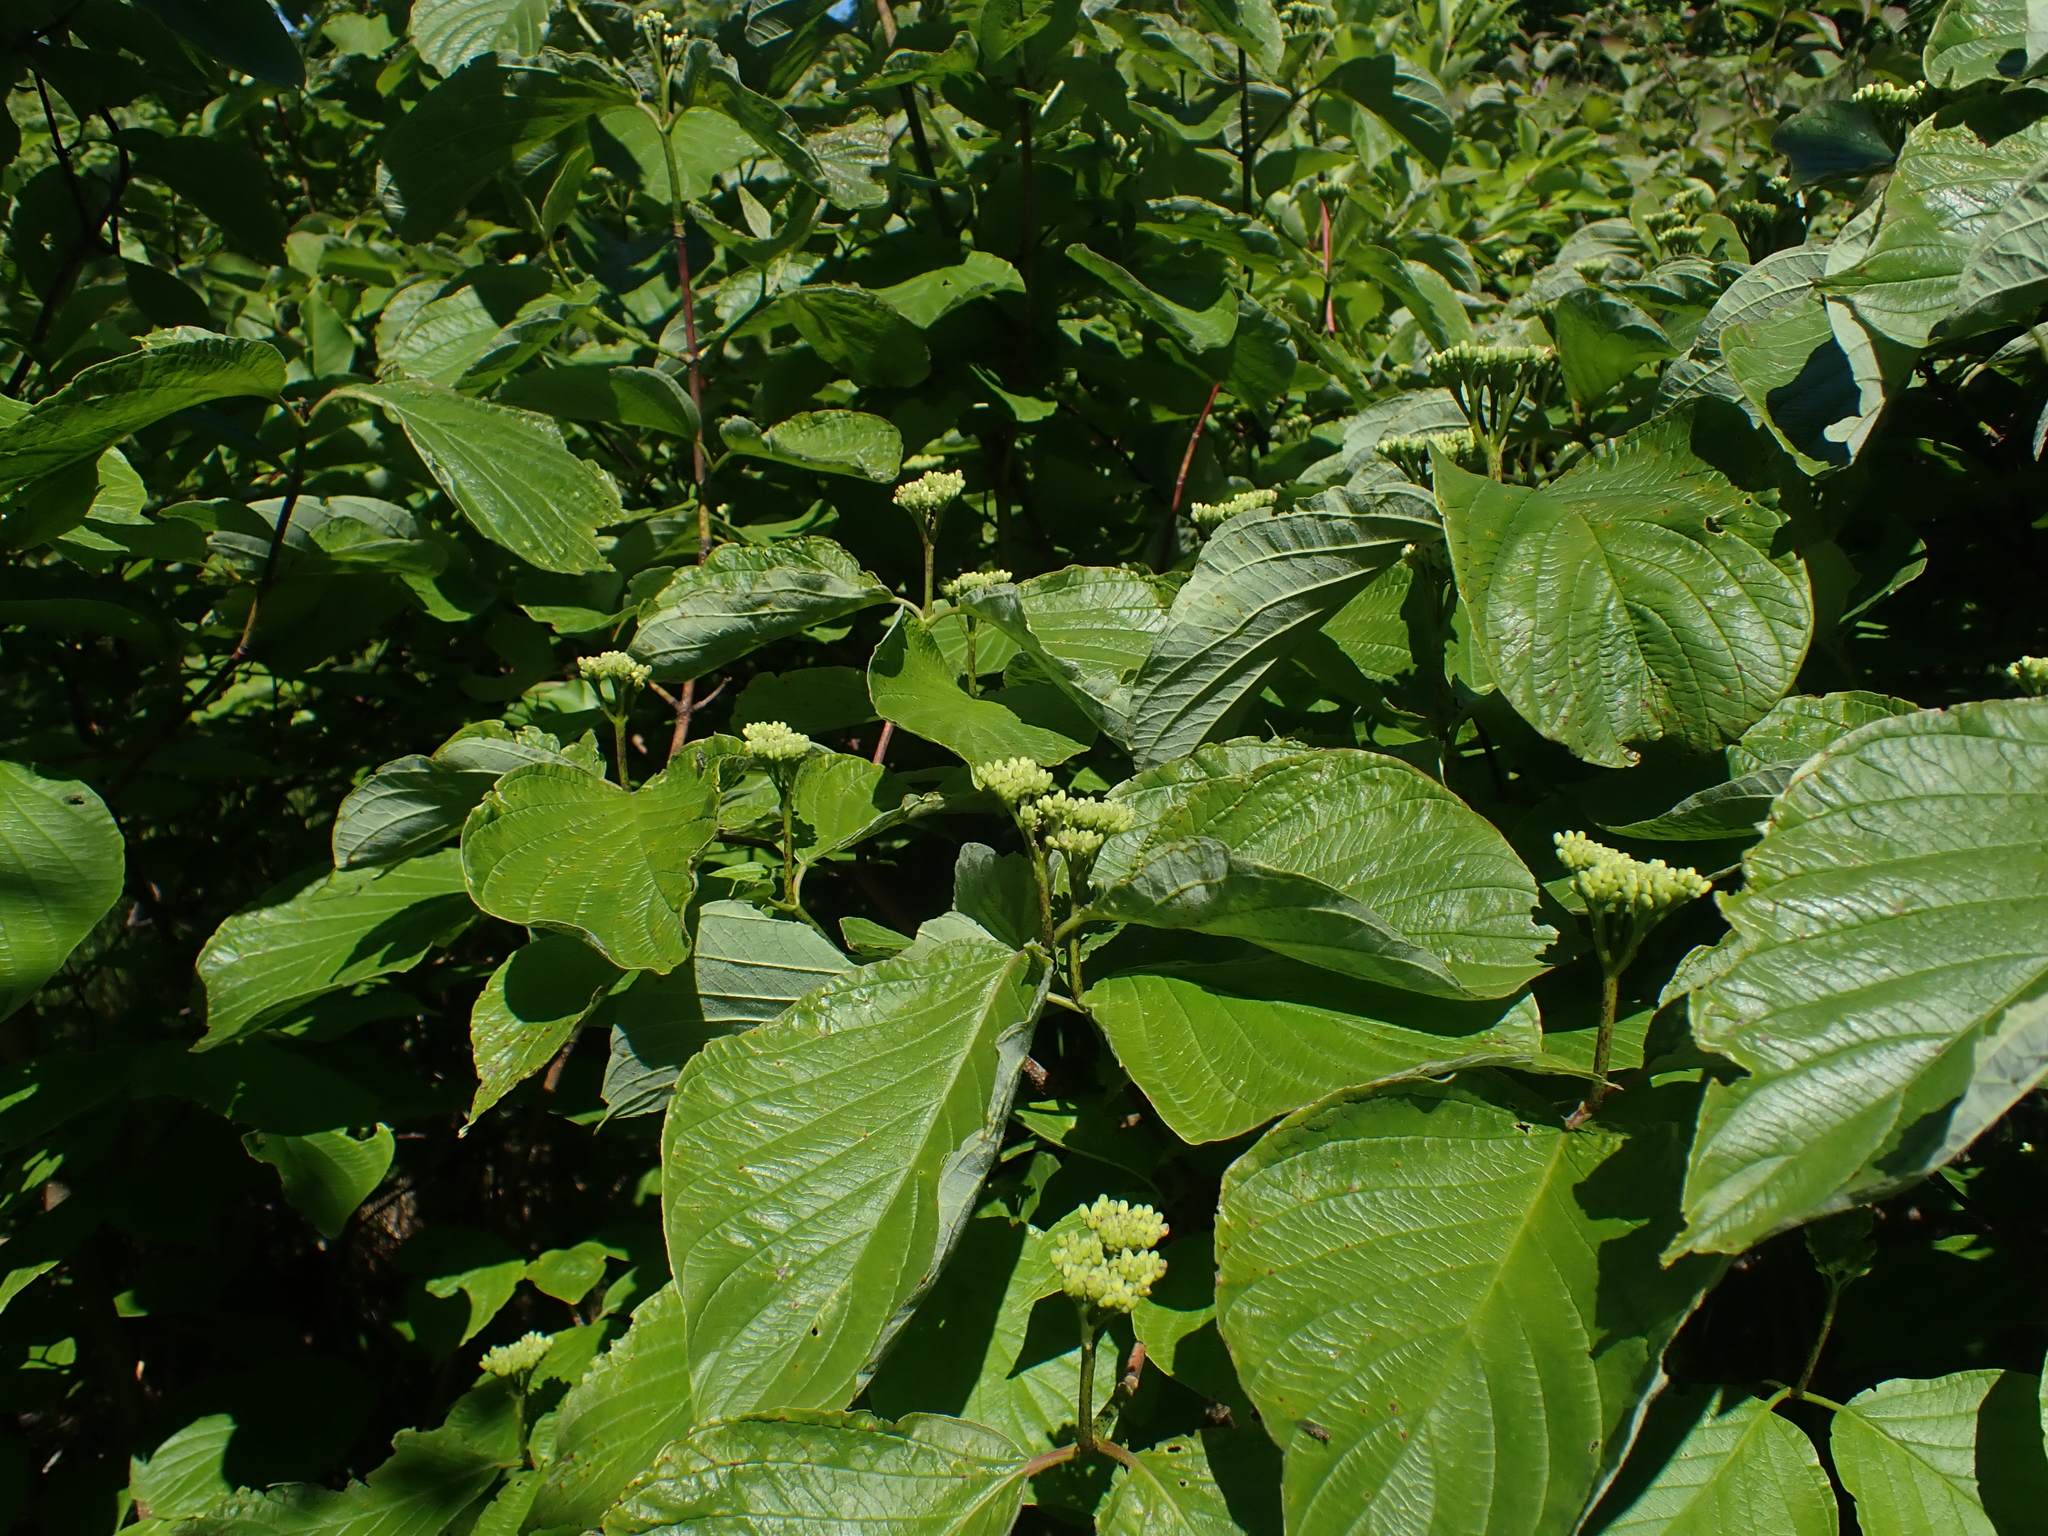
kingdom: Plantae
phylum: Tracheophyta
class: Magnoliopsida
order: Cornales
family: Cornaceae
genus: Cornus
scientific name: Cornus rugosa
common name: Round-leaf dogwood
